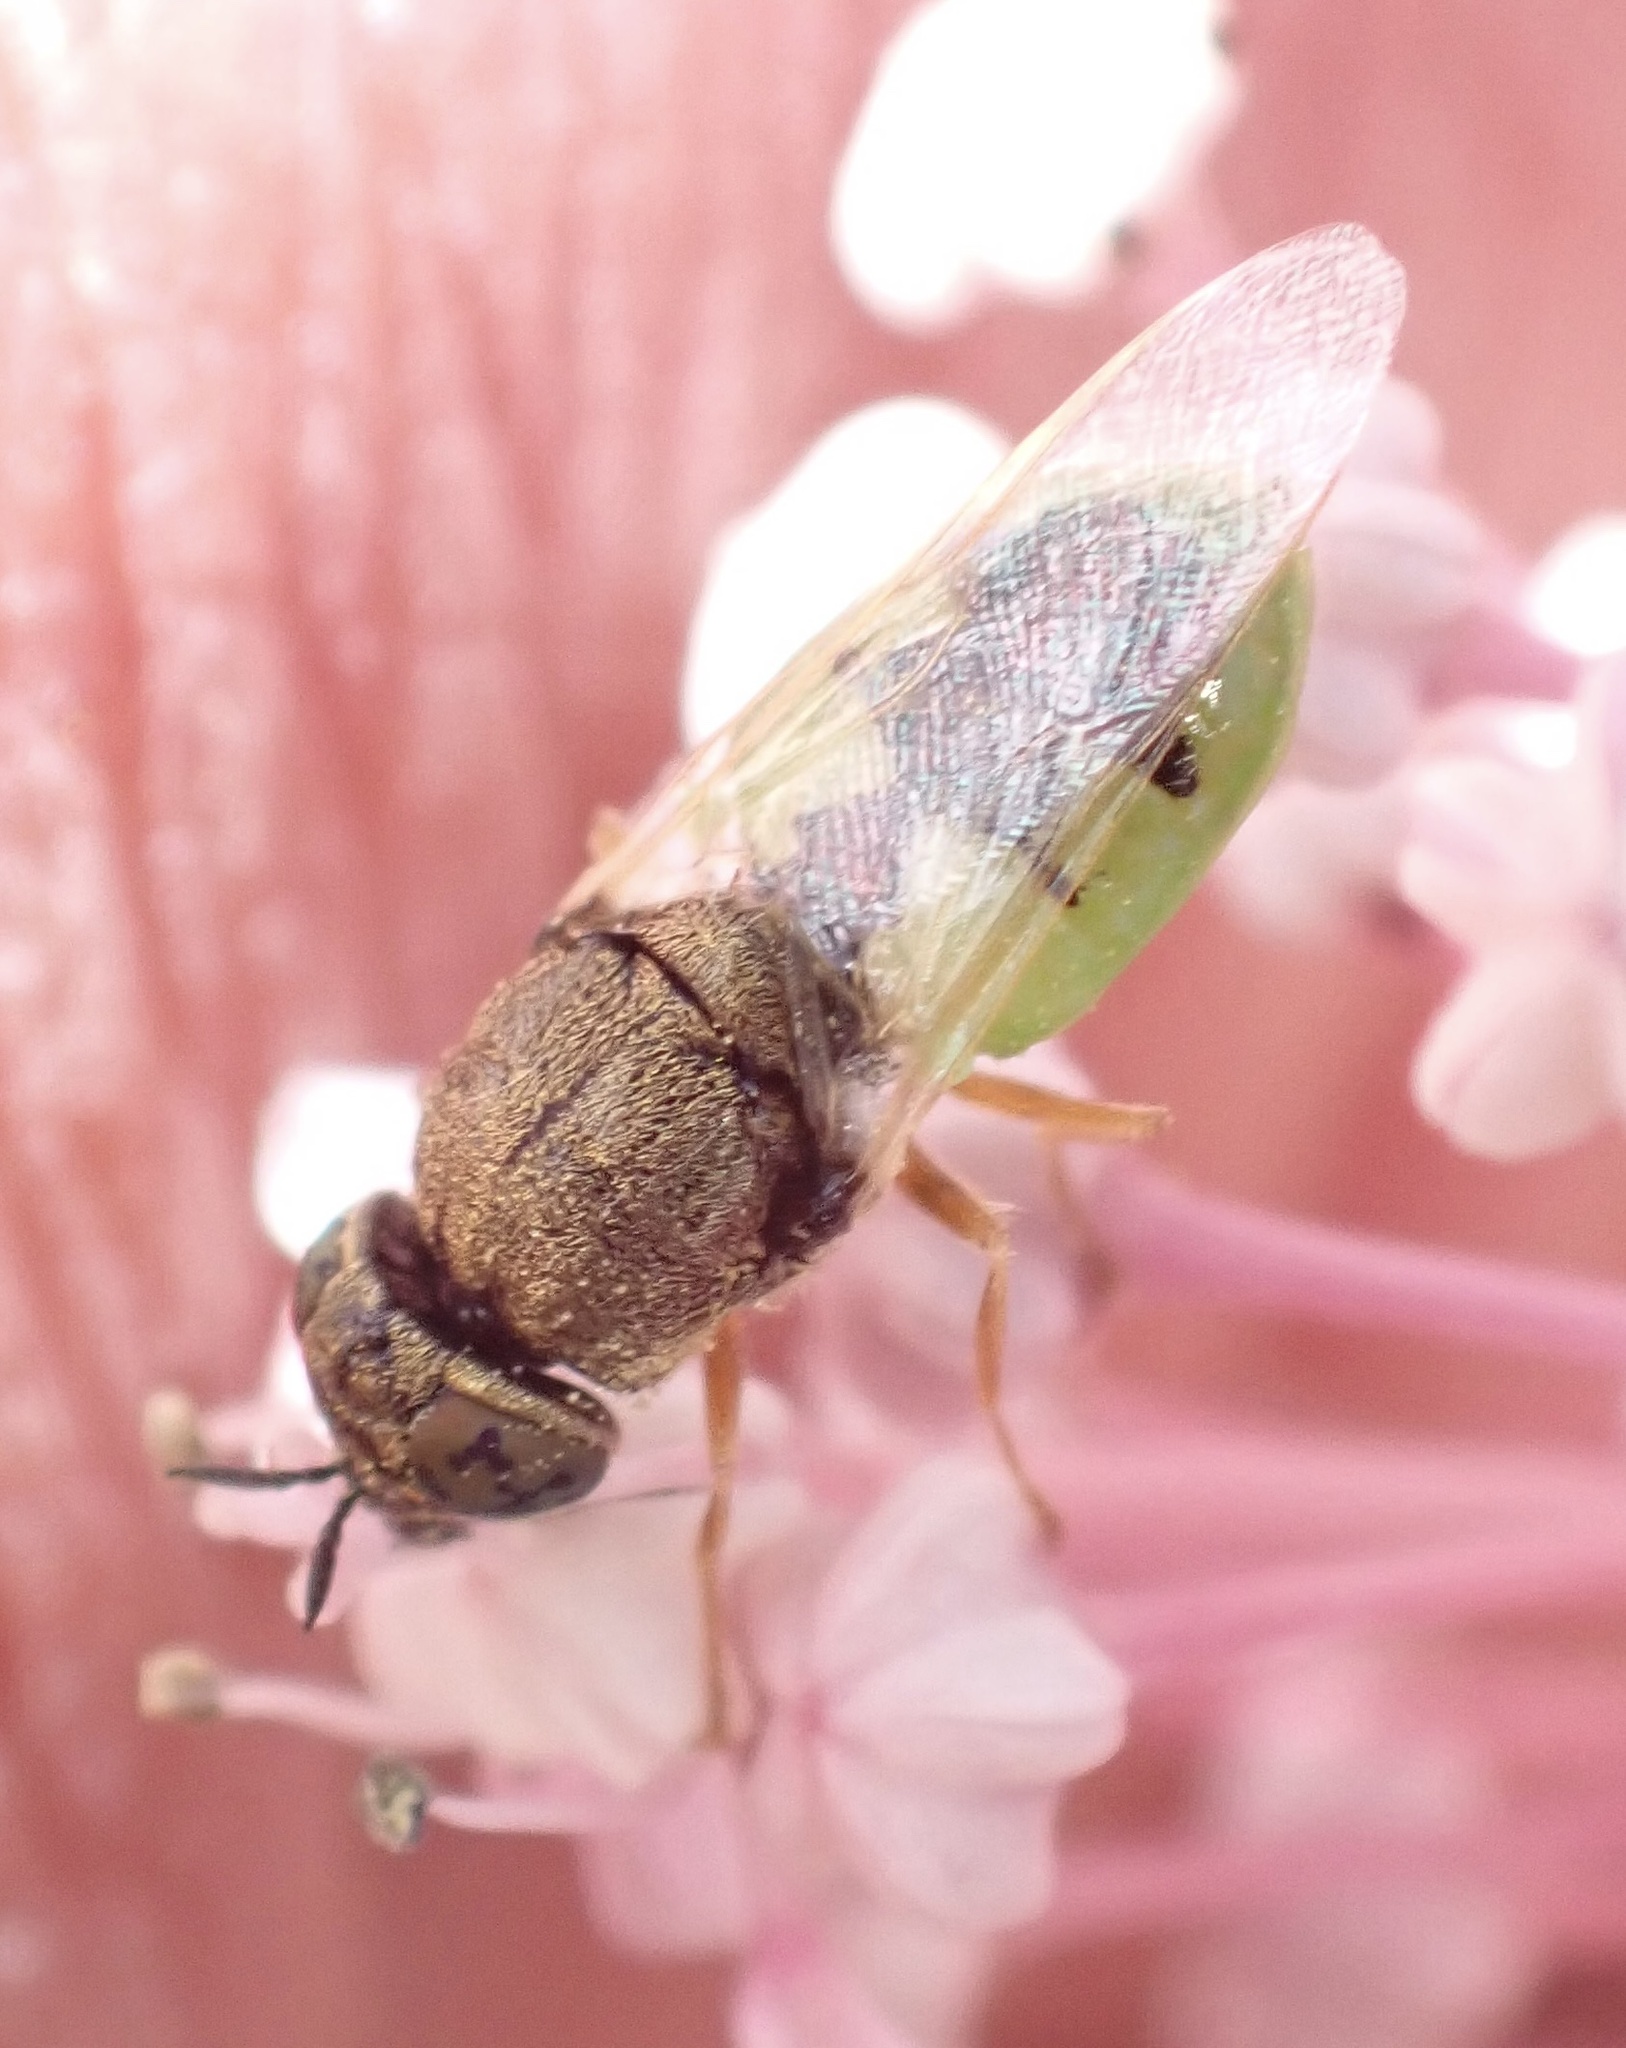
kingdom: Animalia
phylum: Arthropoda
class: Insecta
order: Diptera
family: Stratiomyidae
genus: Oplodontha
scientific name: Oplodontha viridula
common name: Common green colonel
